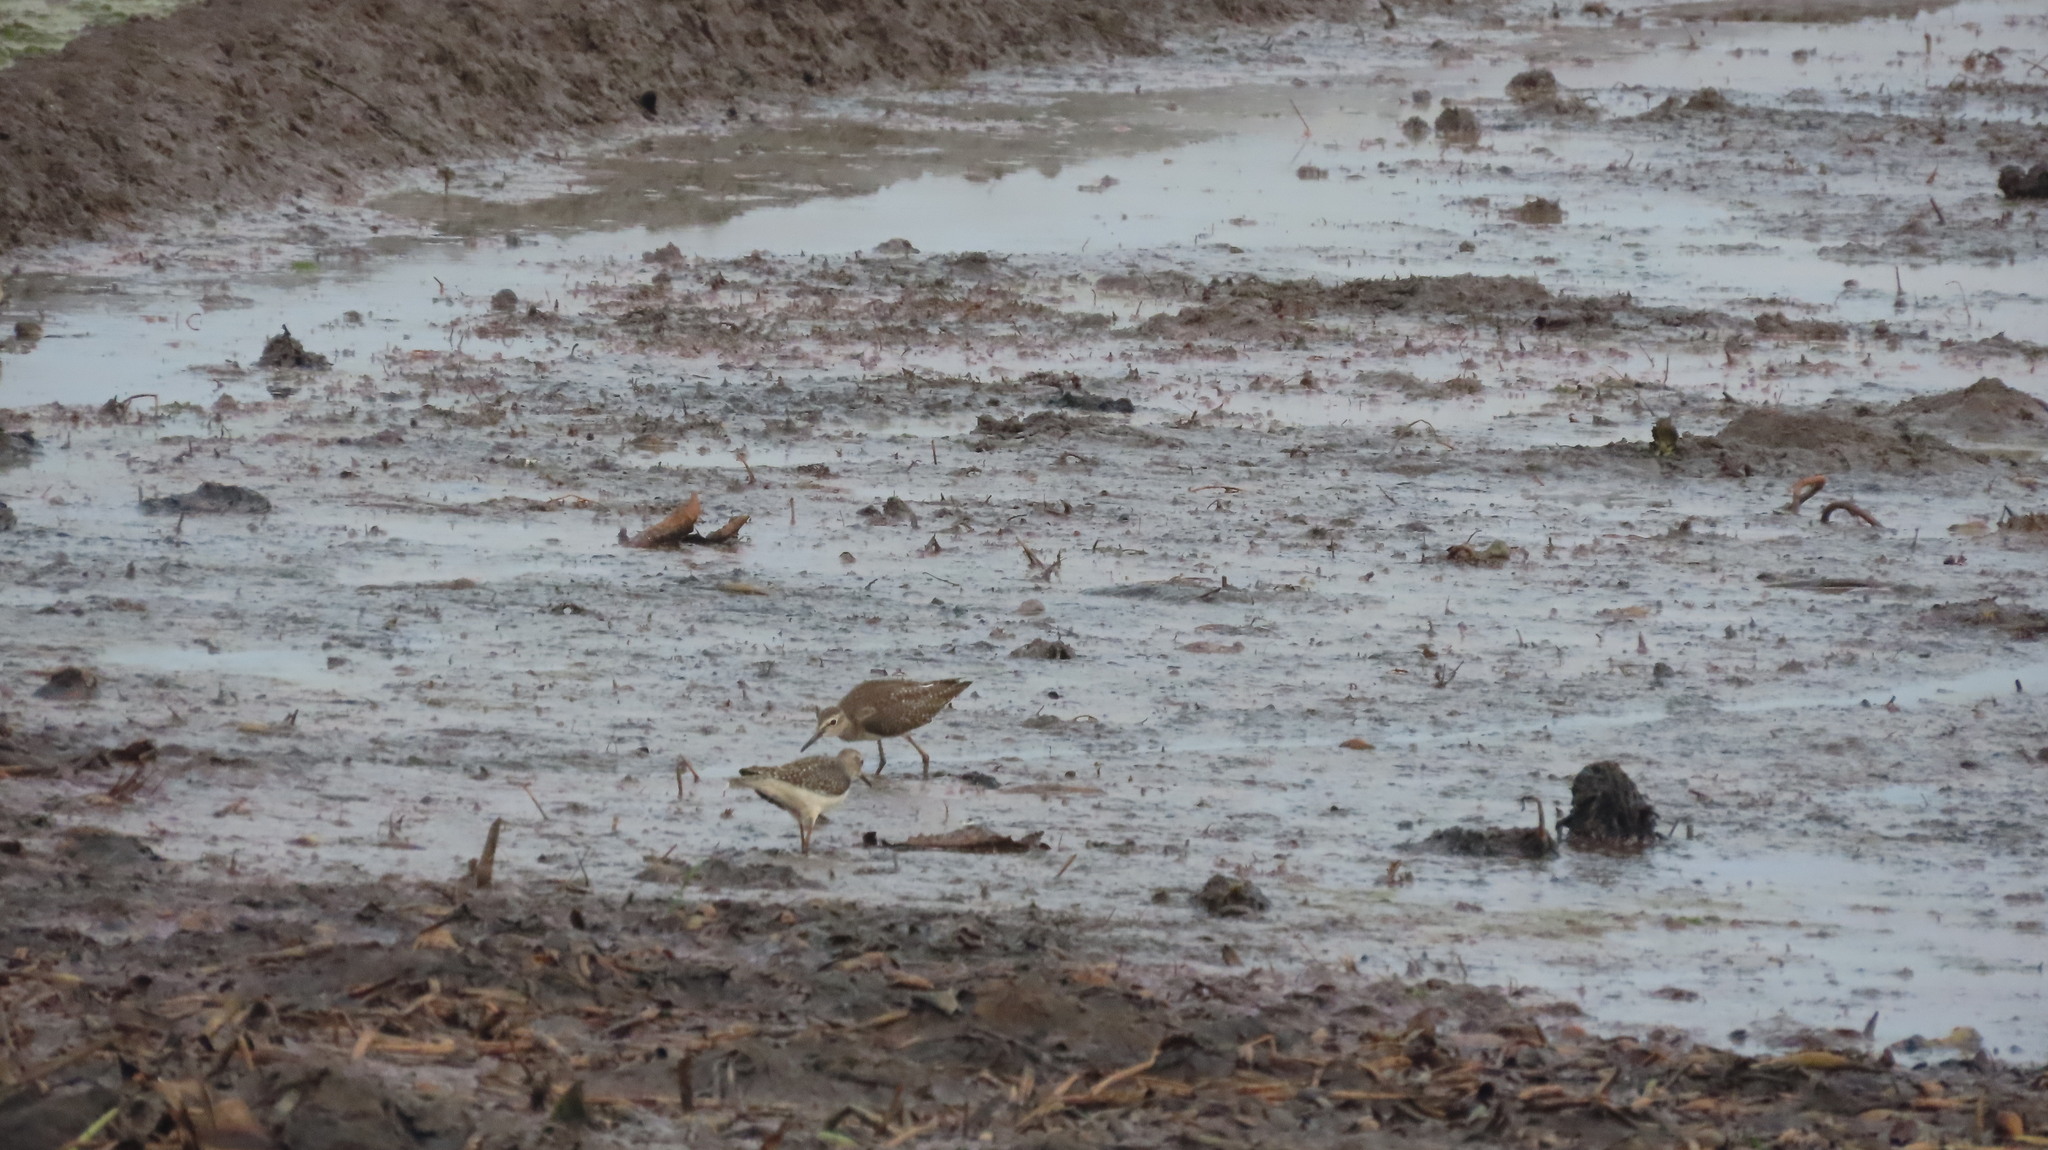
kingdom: Animalia
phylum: Chordata
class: Aves
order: Charadriiformes
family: Scolopacidae
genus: Tringa
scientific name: Tringa glareola
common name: Wood sandpiper
